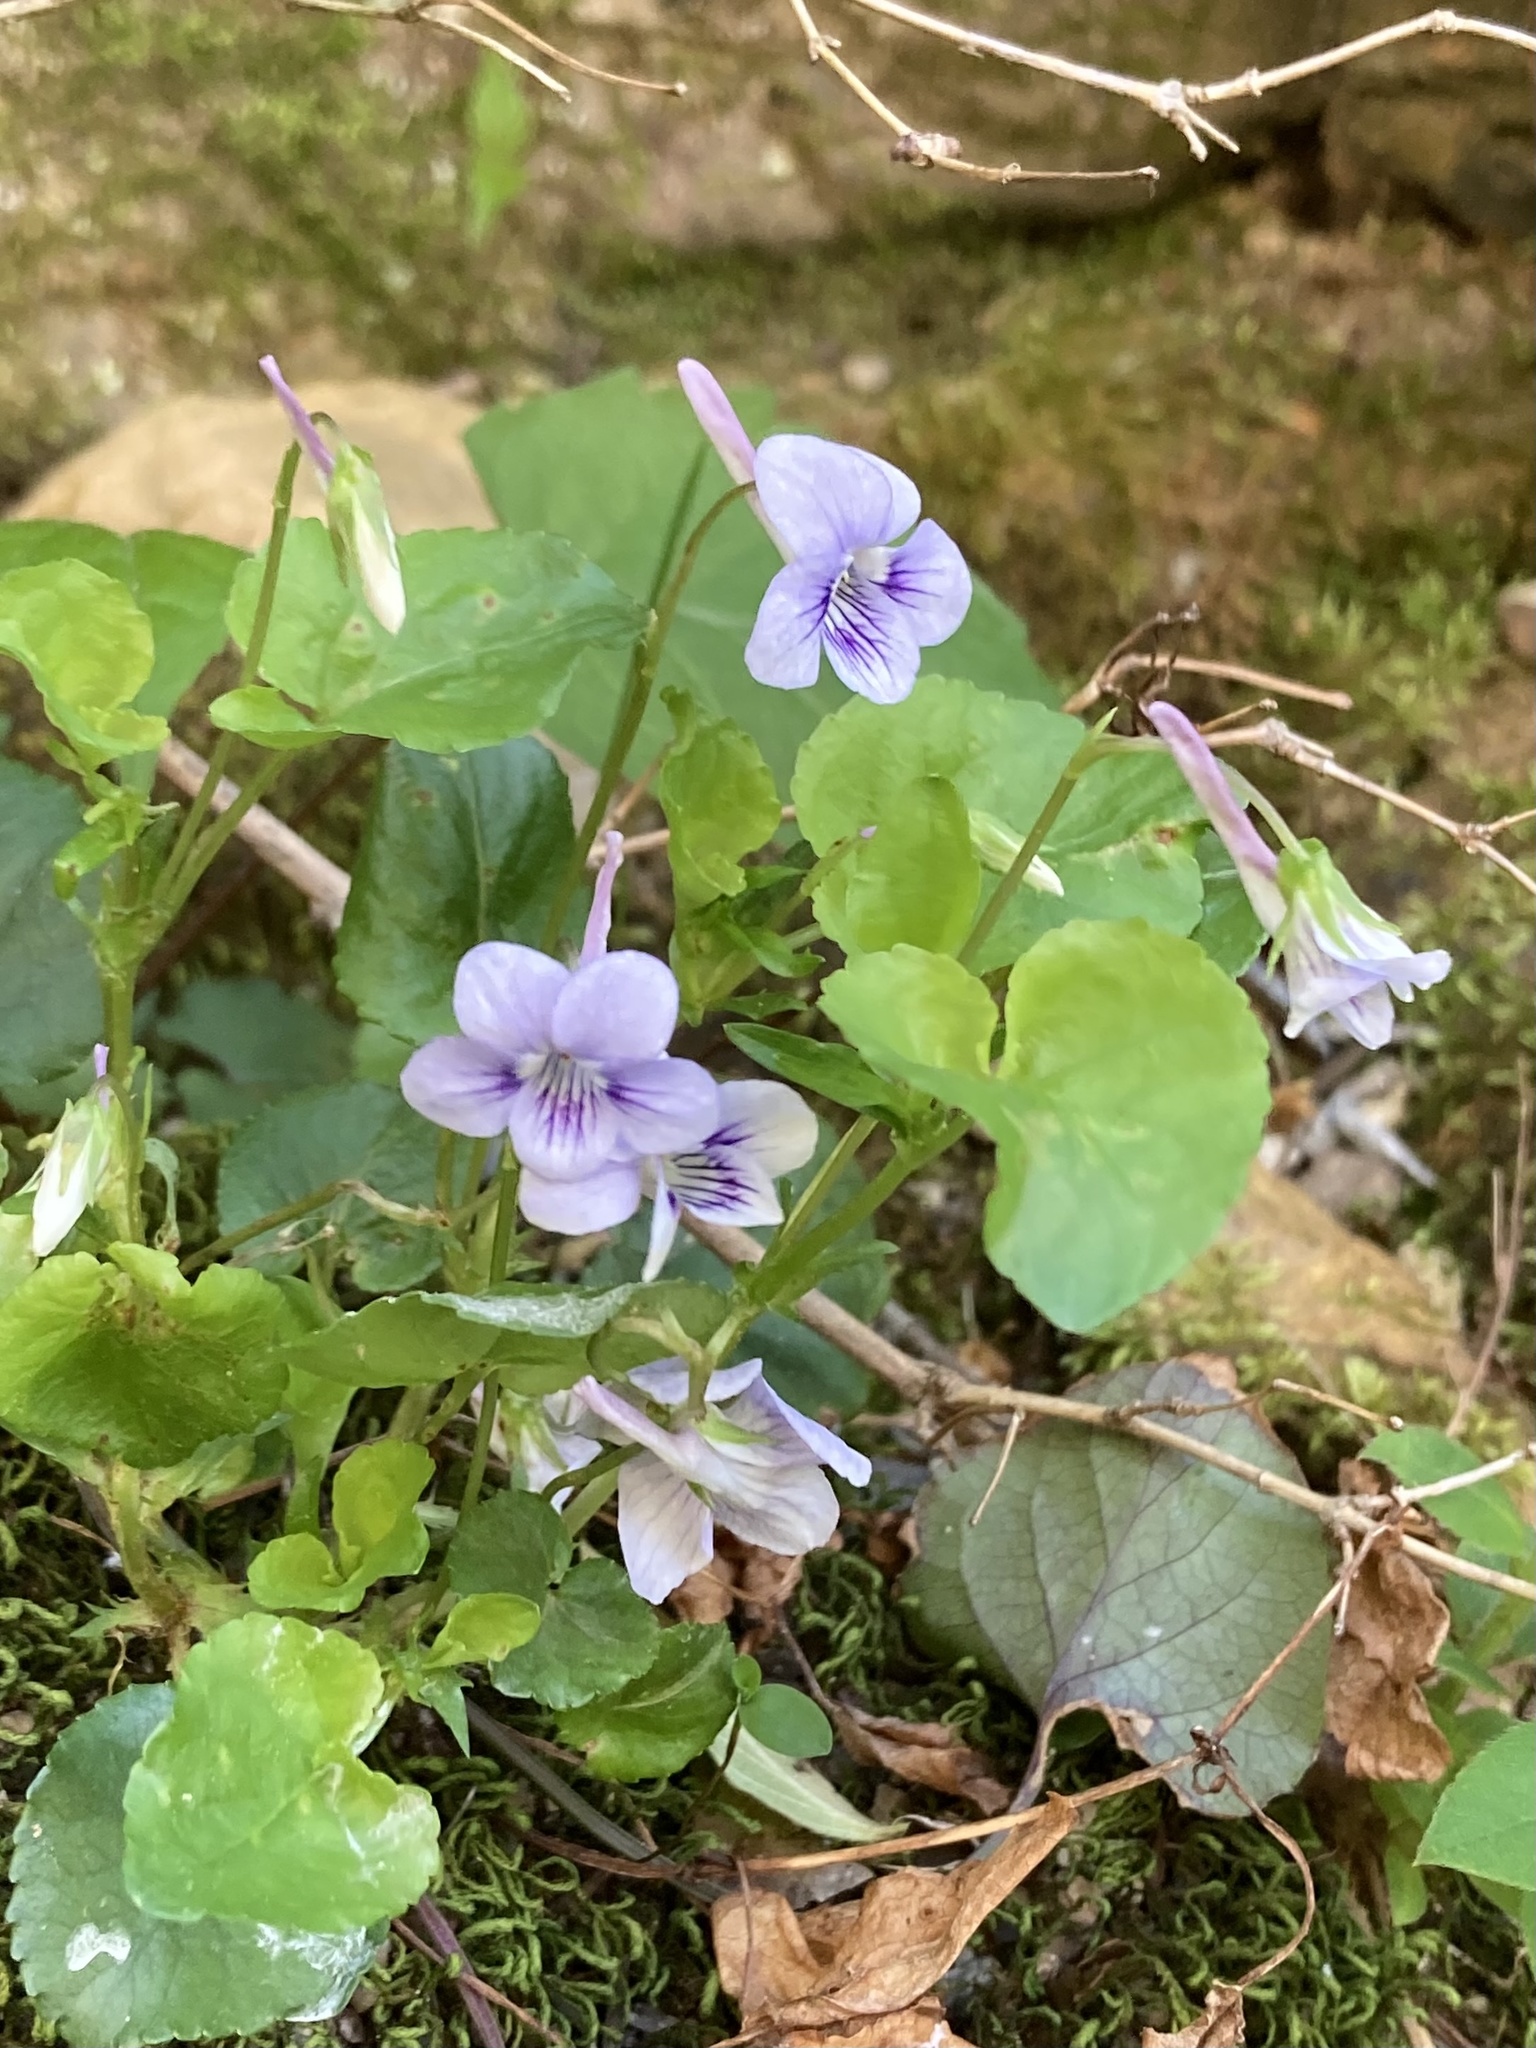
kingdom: Plantae
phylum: Tracheophyta
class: Magnoliopsida
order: Malpighiales
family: Violaceae
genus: Viola
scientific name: Viola rostrata
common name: Long-spur violet
